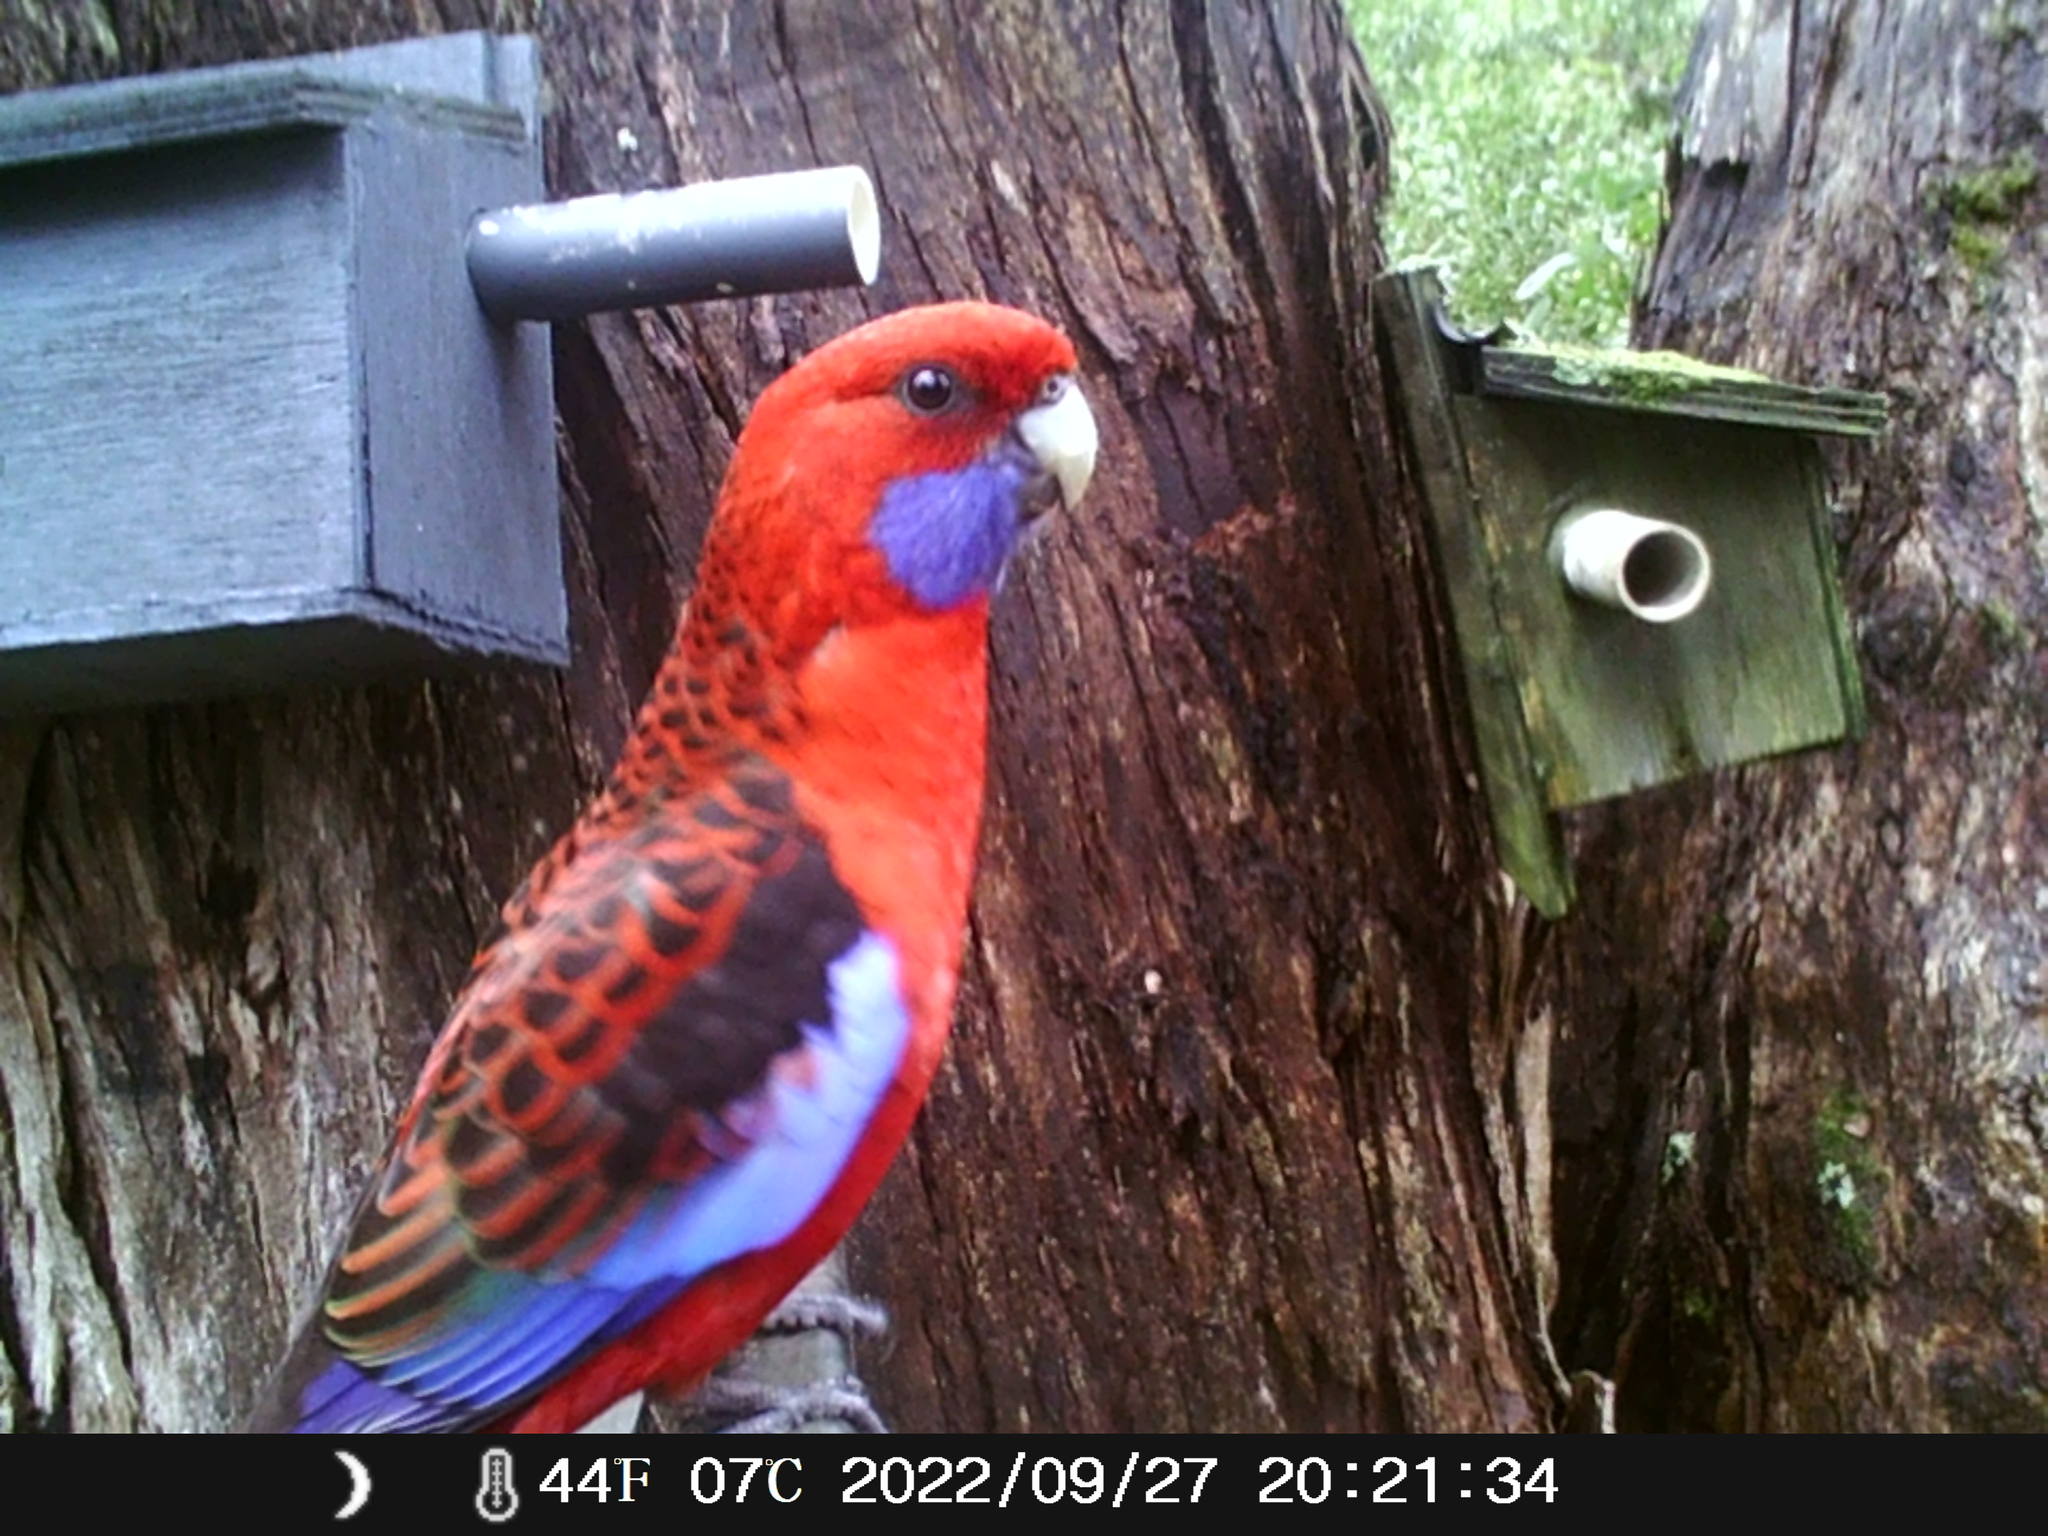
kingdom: Animalia
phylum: Chordata
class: Aves
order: Psittaciformes
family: Psittacidae
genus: Platycercus
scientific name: Platycercus elegans
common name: Crimson rosella
